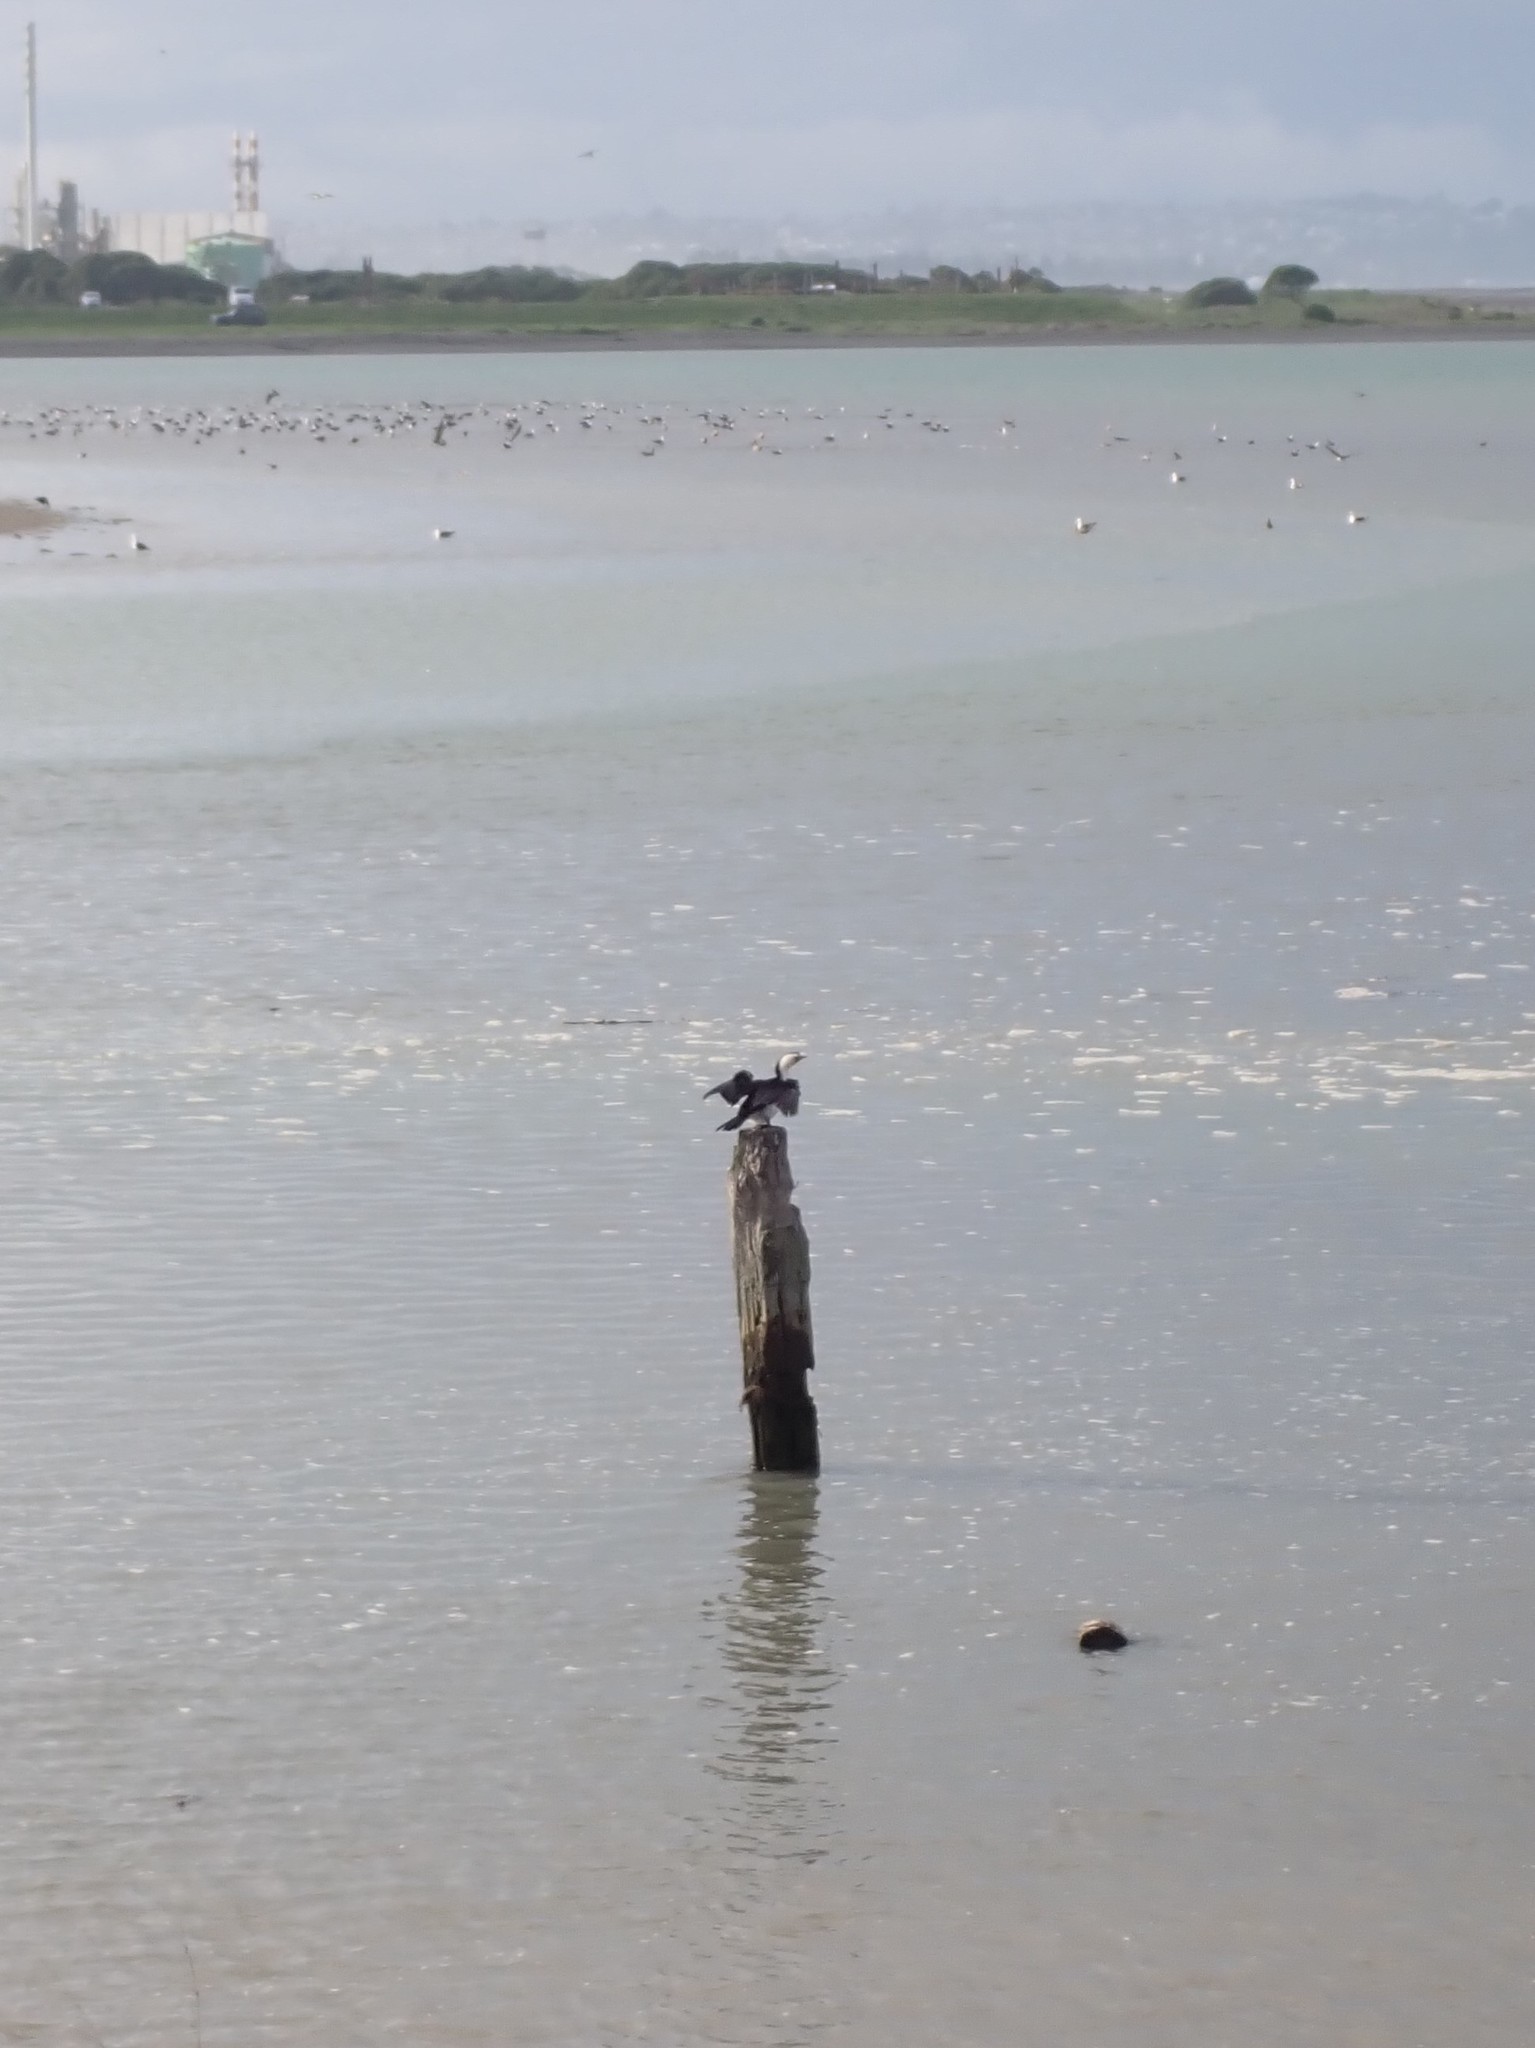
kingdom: Animalia
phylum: Chordata
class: Aves
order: Suliformes
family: Phalacrocoracidae
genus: Microcarbo
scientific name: Microcarbo melanoleucos
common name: Little pied cormorant
